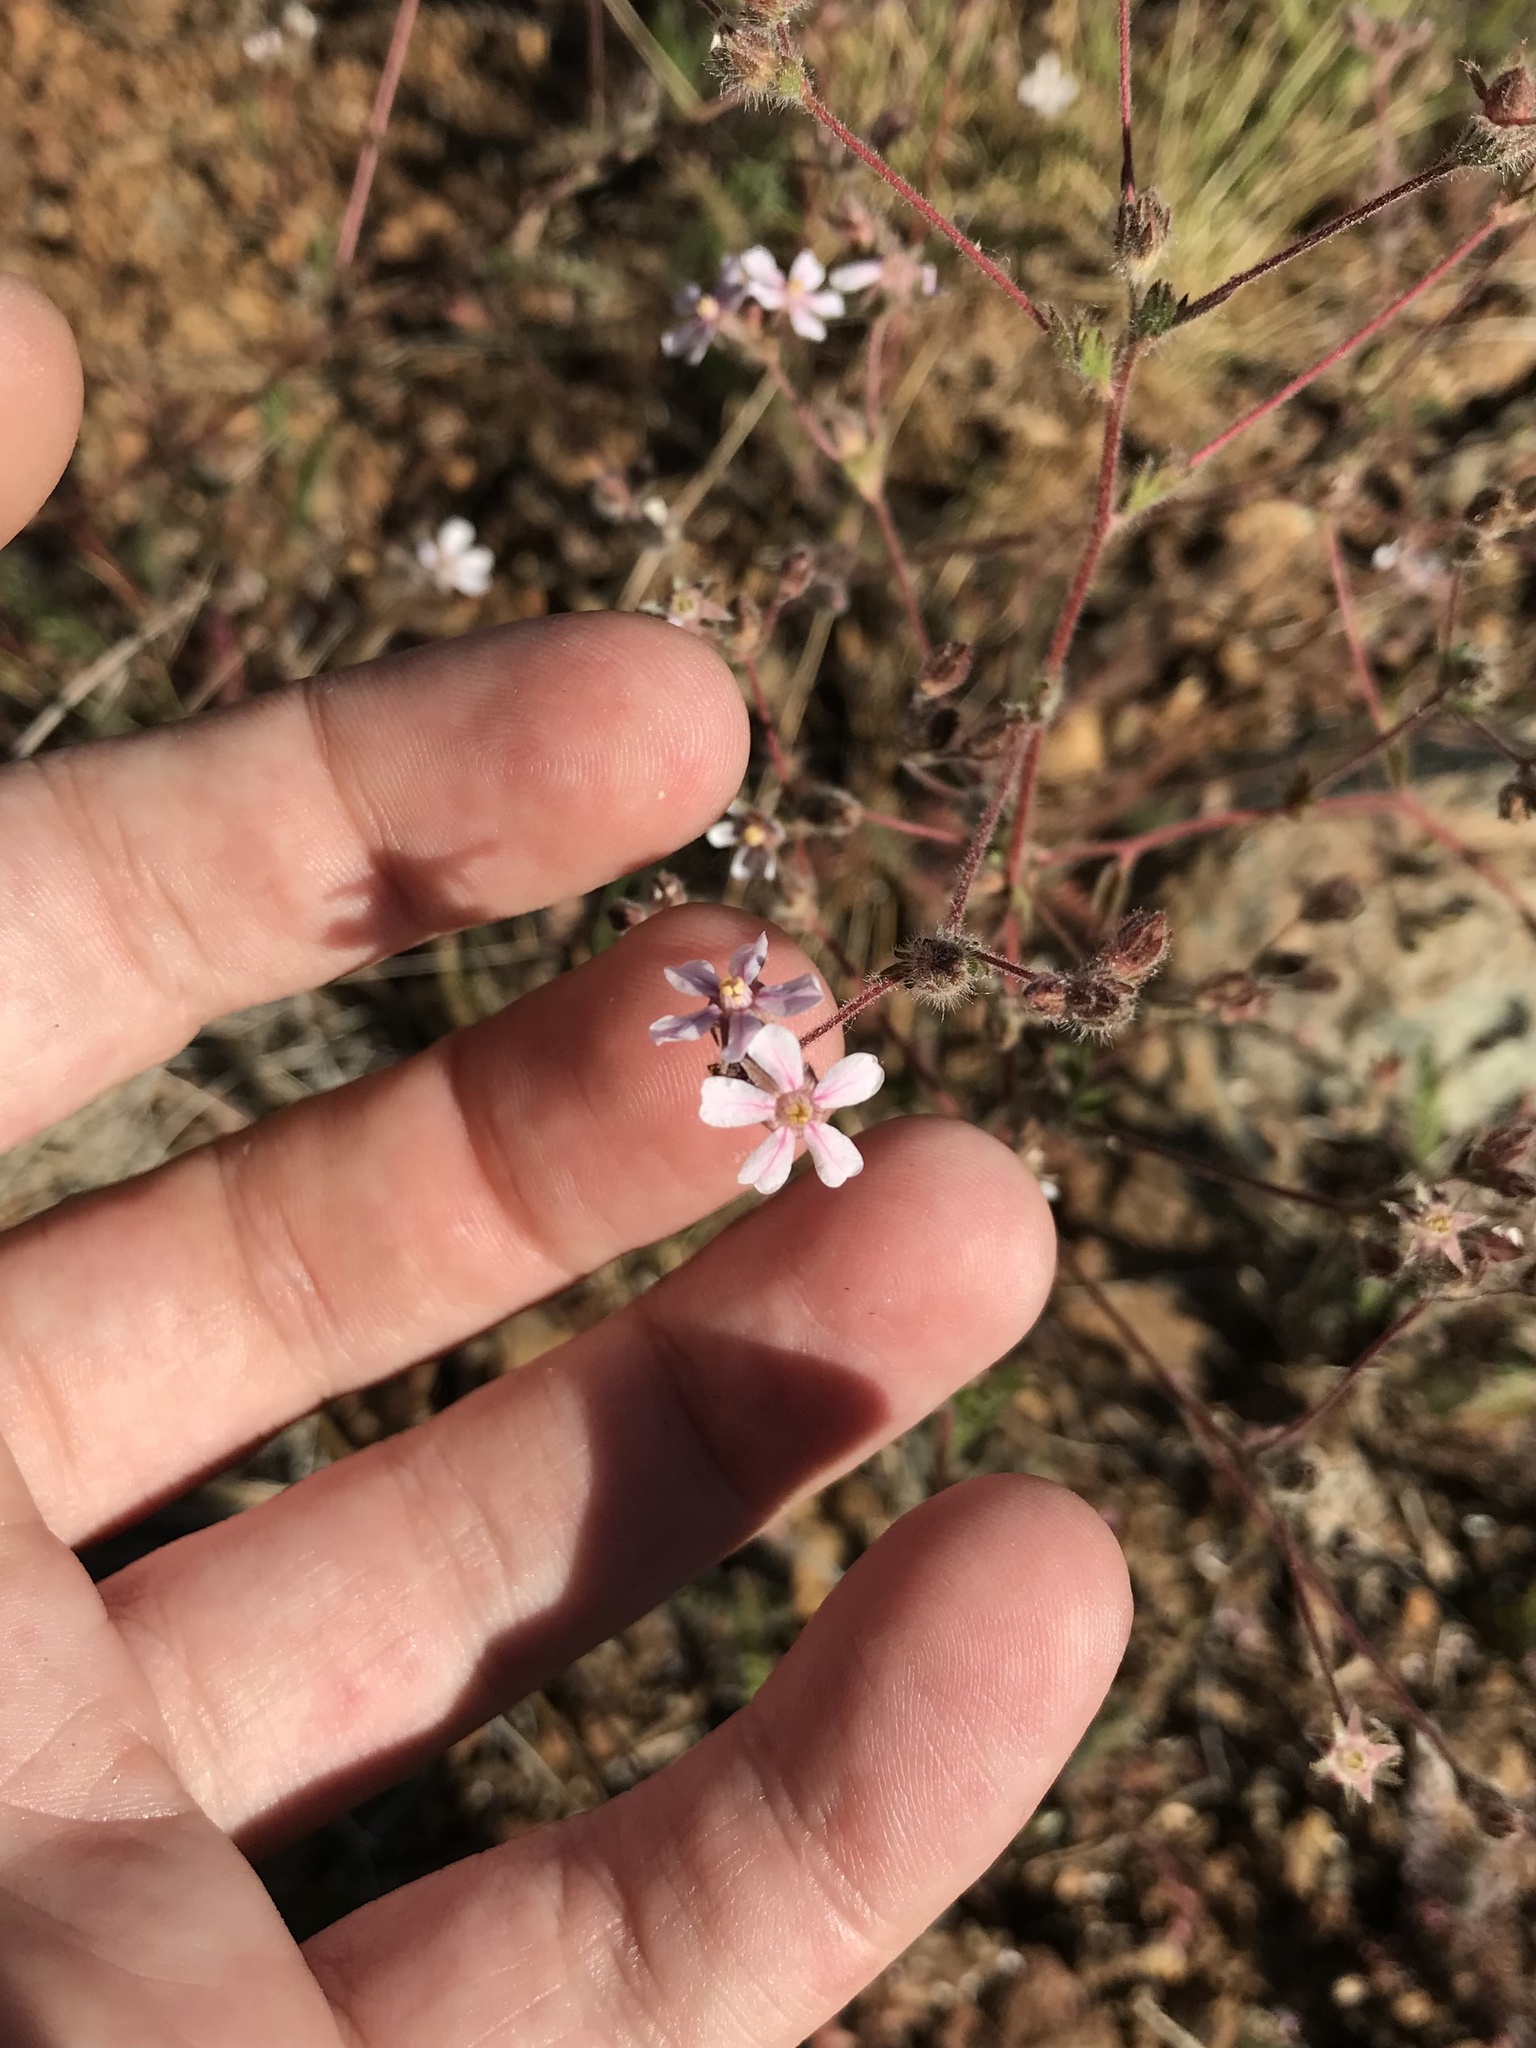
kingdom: Plantae
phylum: Tracheophyta
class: Magnoliopsida
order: Rosales
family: Rosaceae
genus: Potentilla
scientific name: Potentilla howellii
